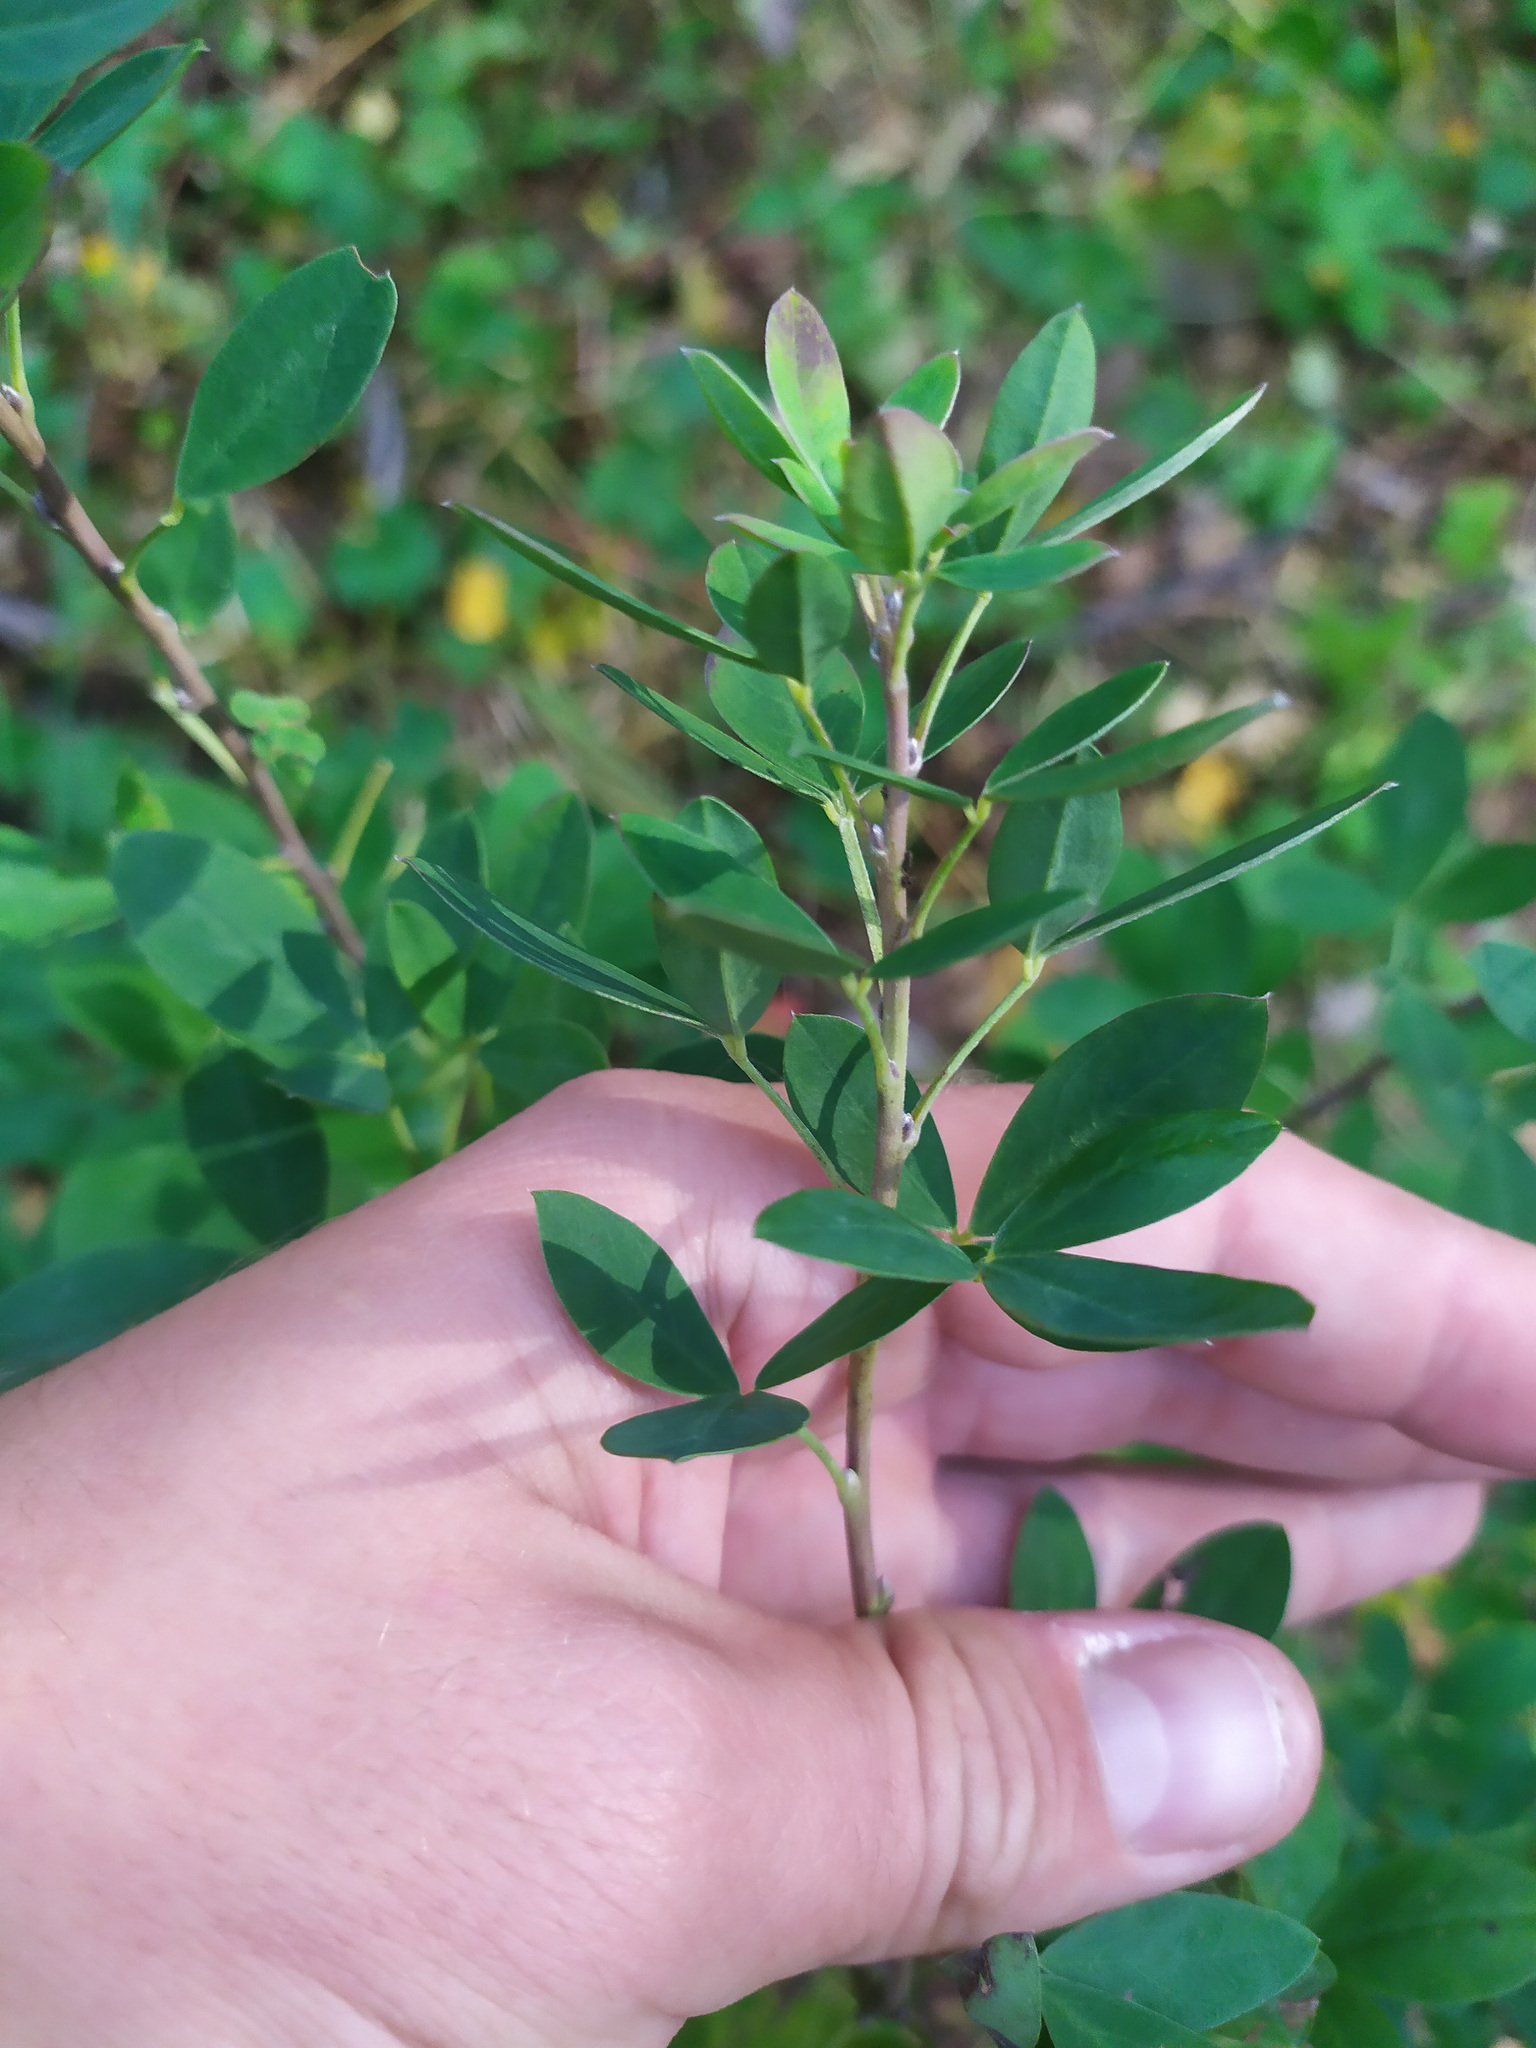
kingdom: Plantae
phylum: Tracheophyta
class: Magnoliopsida
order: Fabales
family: Fabaceae
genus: Chamaecytisus
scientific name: Chamaecytisus ruthenicus
